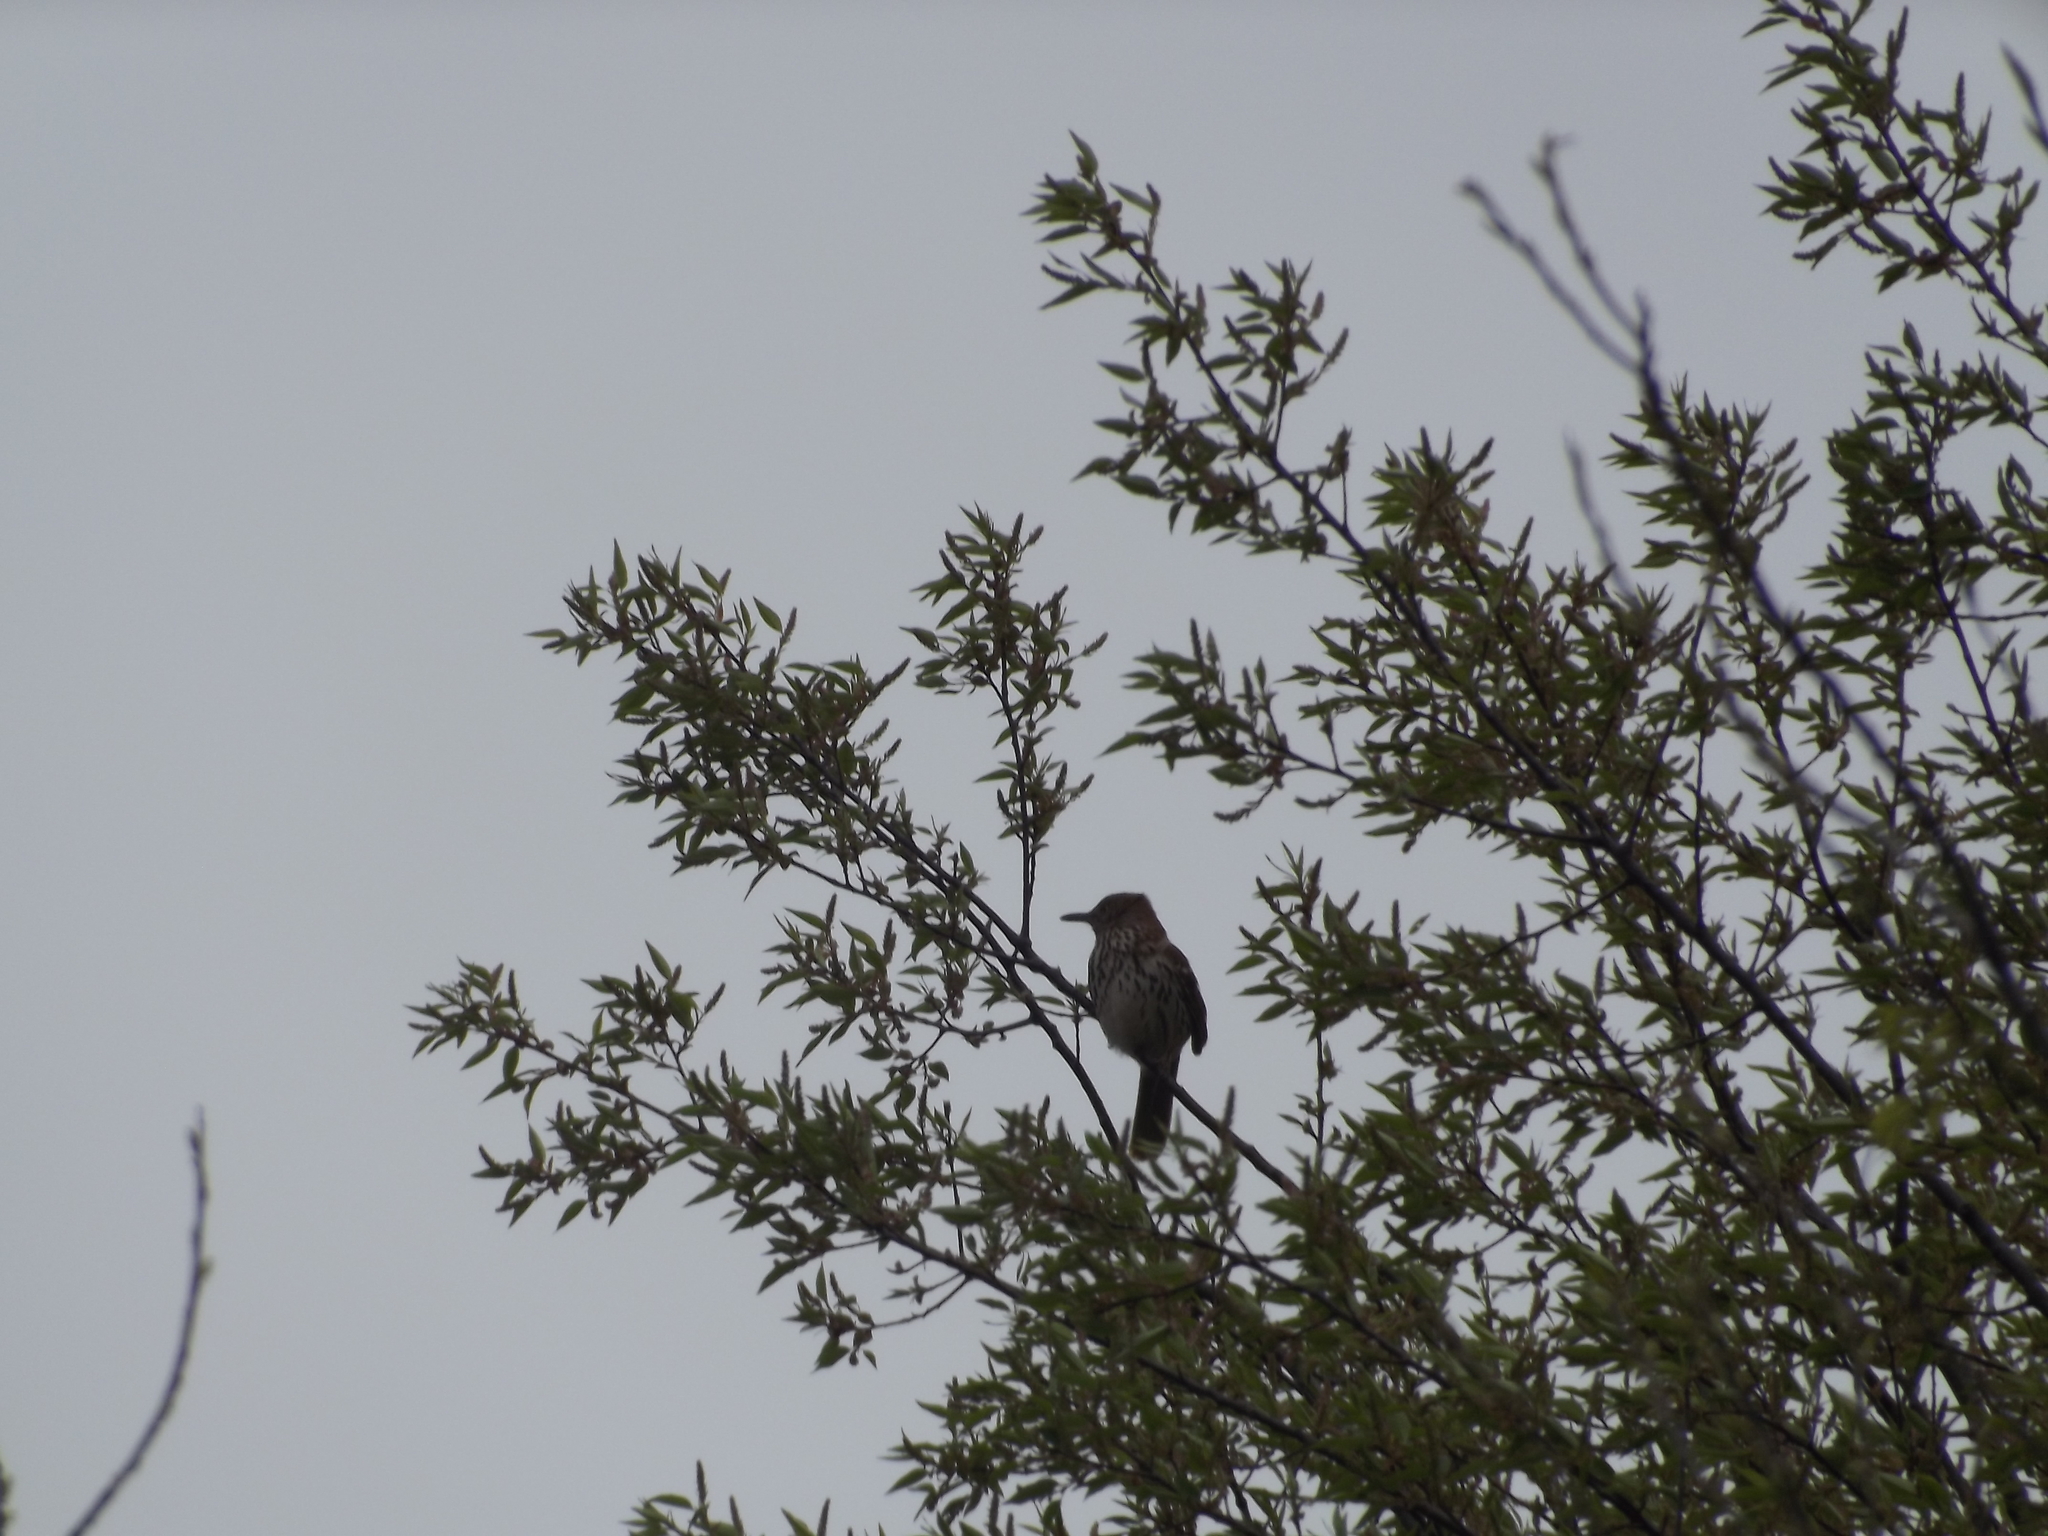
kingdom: Animalia
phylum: Chordata
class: Aves
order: Passeriformes
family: Mimidae
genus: Toxostoma
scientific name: Toxostoma rufum
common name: Brown thrasher
